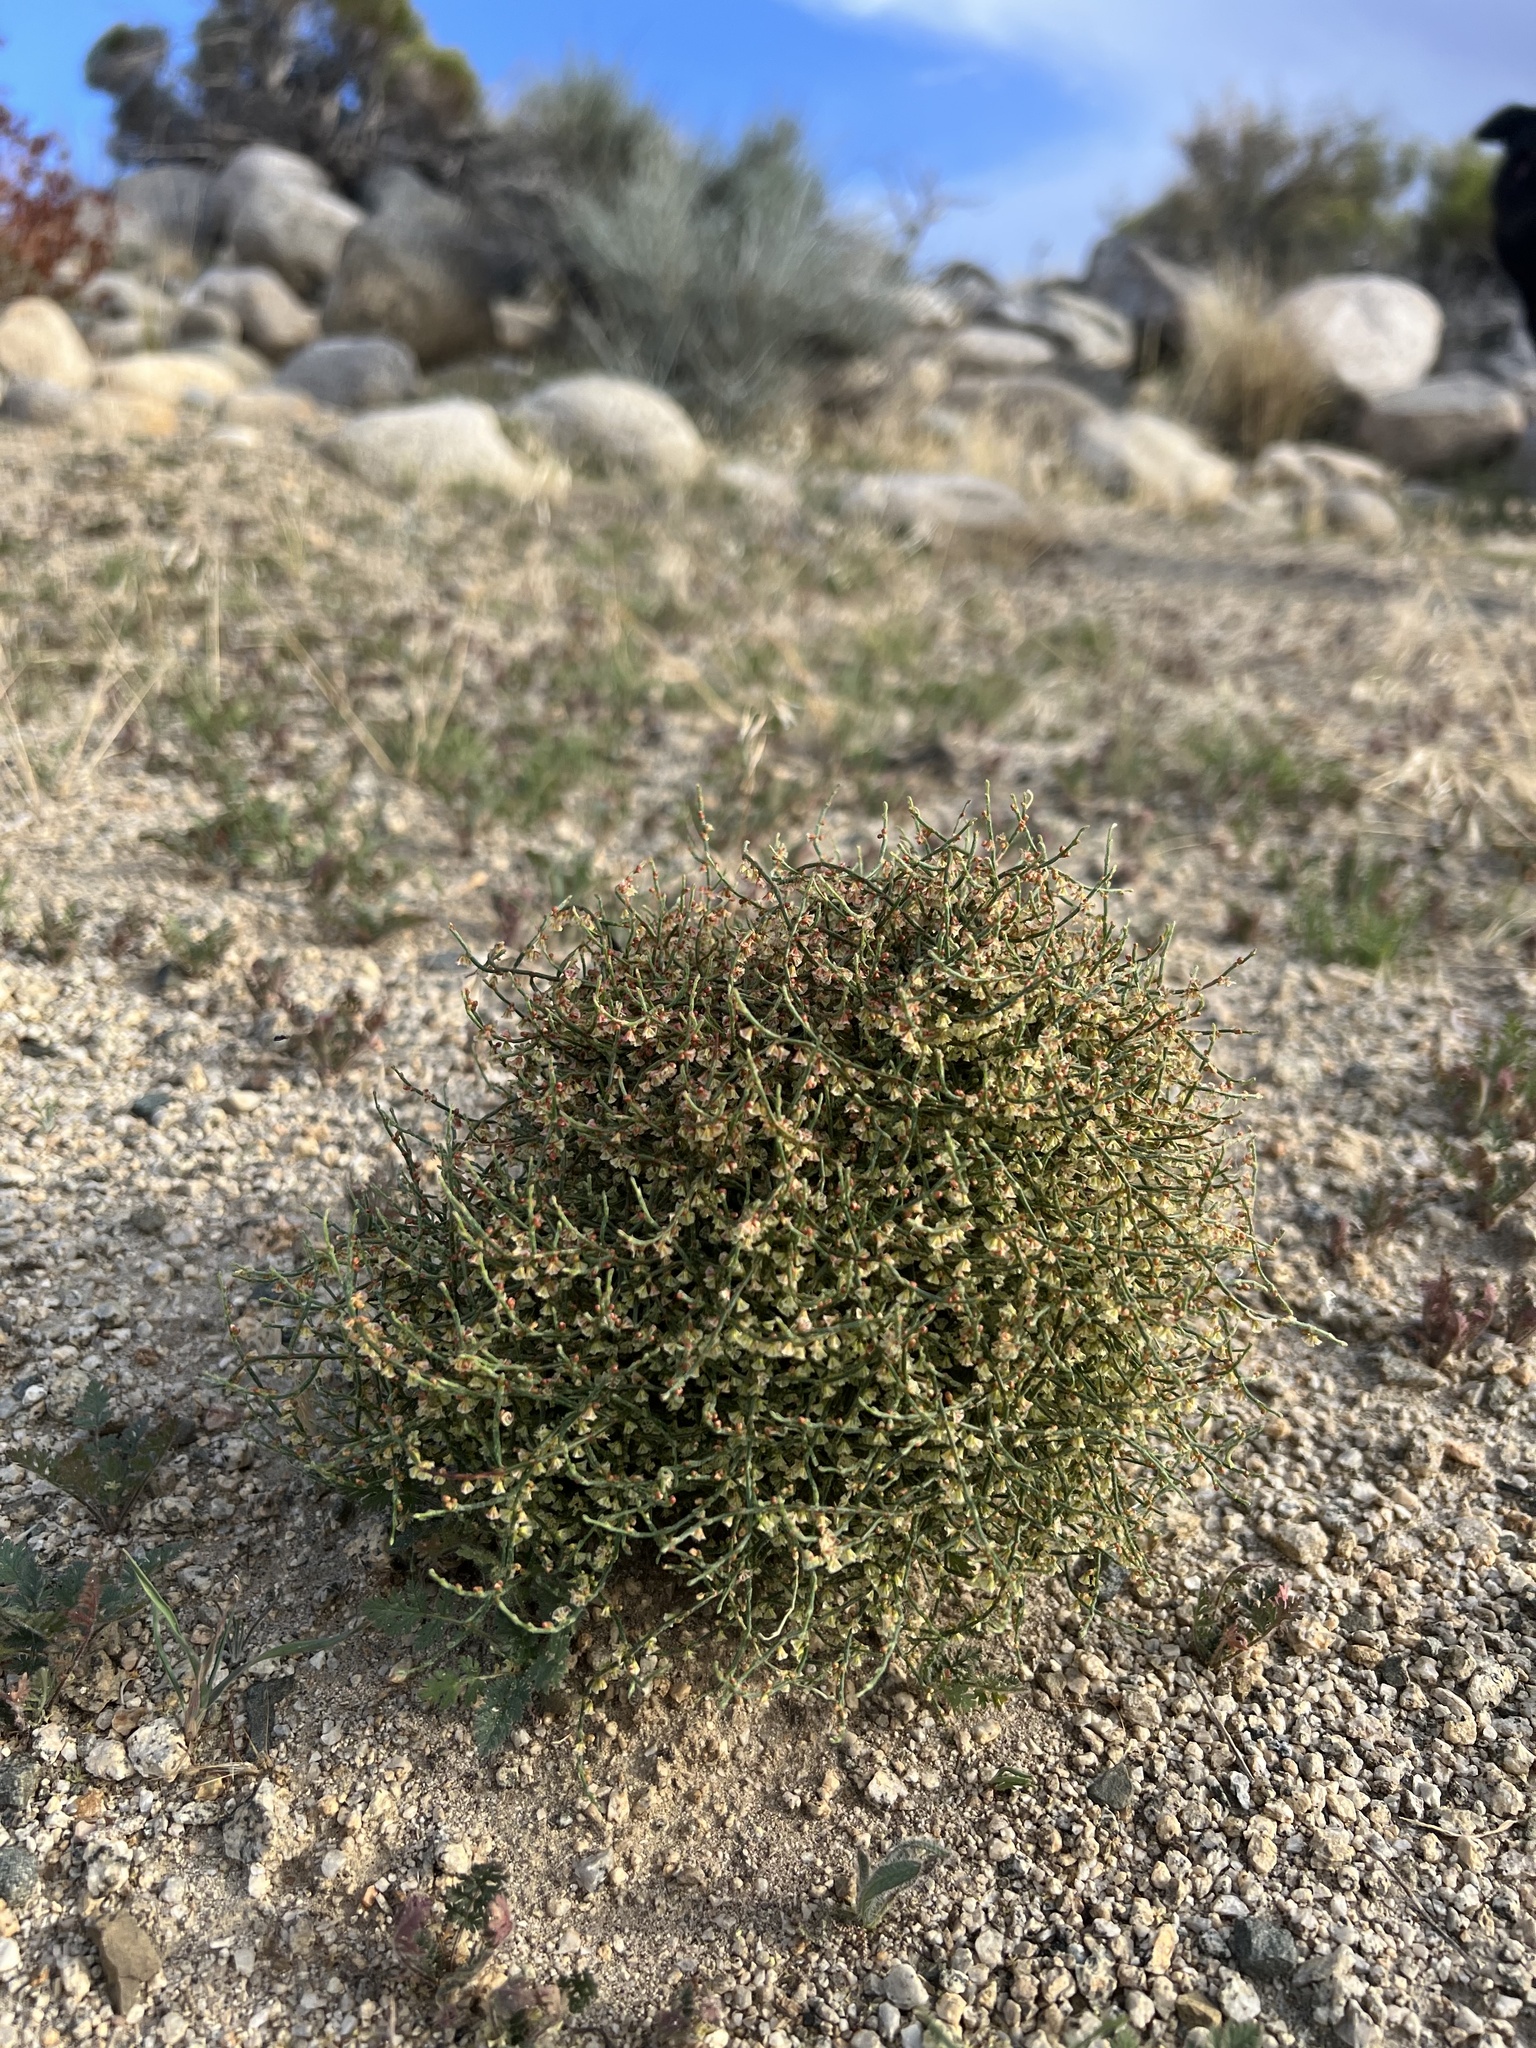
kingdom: Plantae
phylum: Tracheophyta
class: Magnoliopsida
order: Caryophyllales
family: Polygonaceae
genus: Eriogonum
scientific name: Eriogonum nidularium
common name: Bird's-nest wild buckwheat
